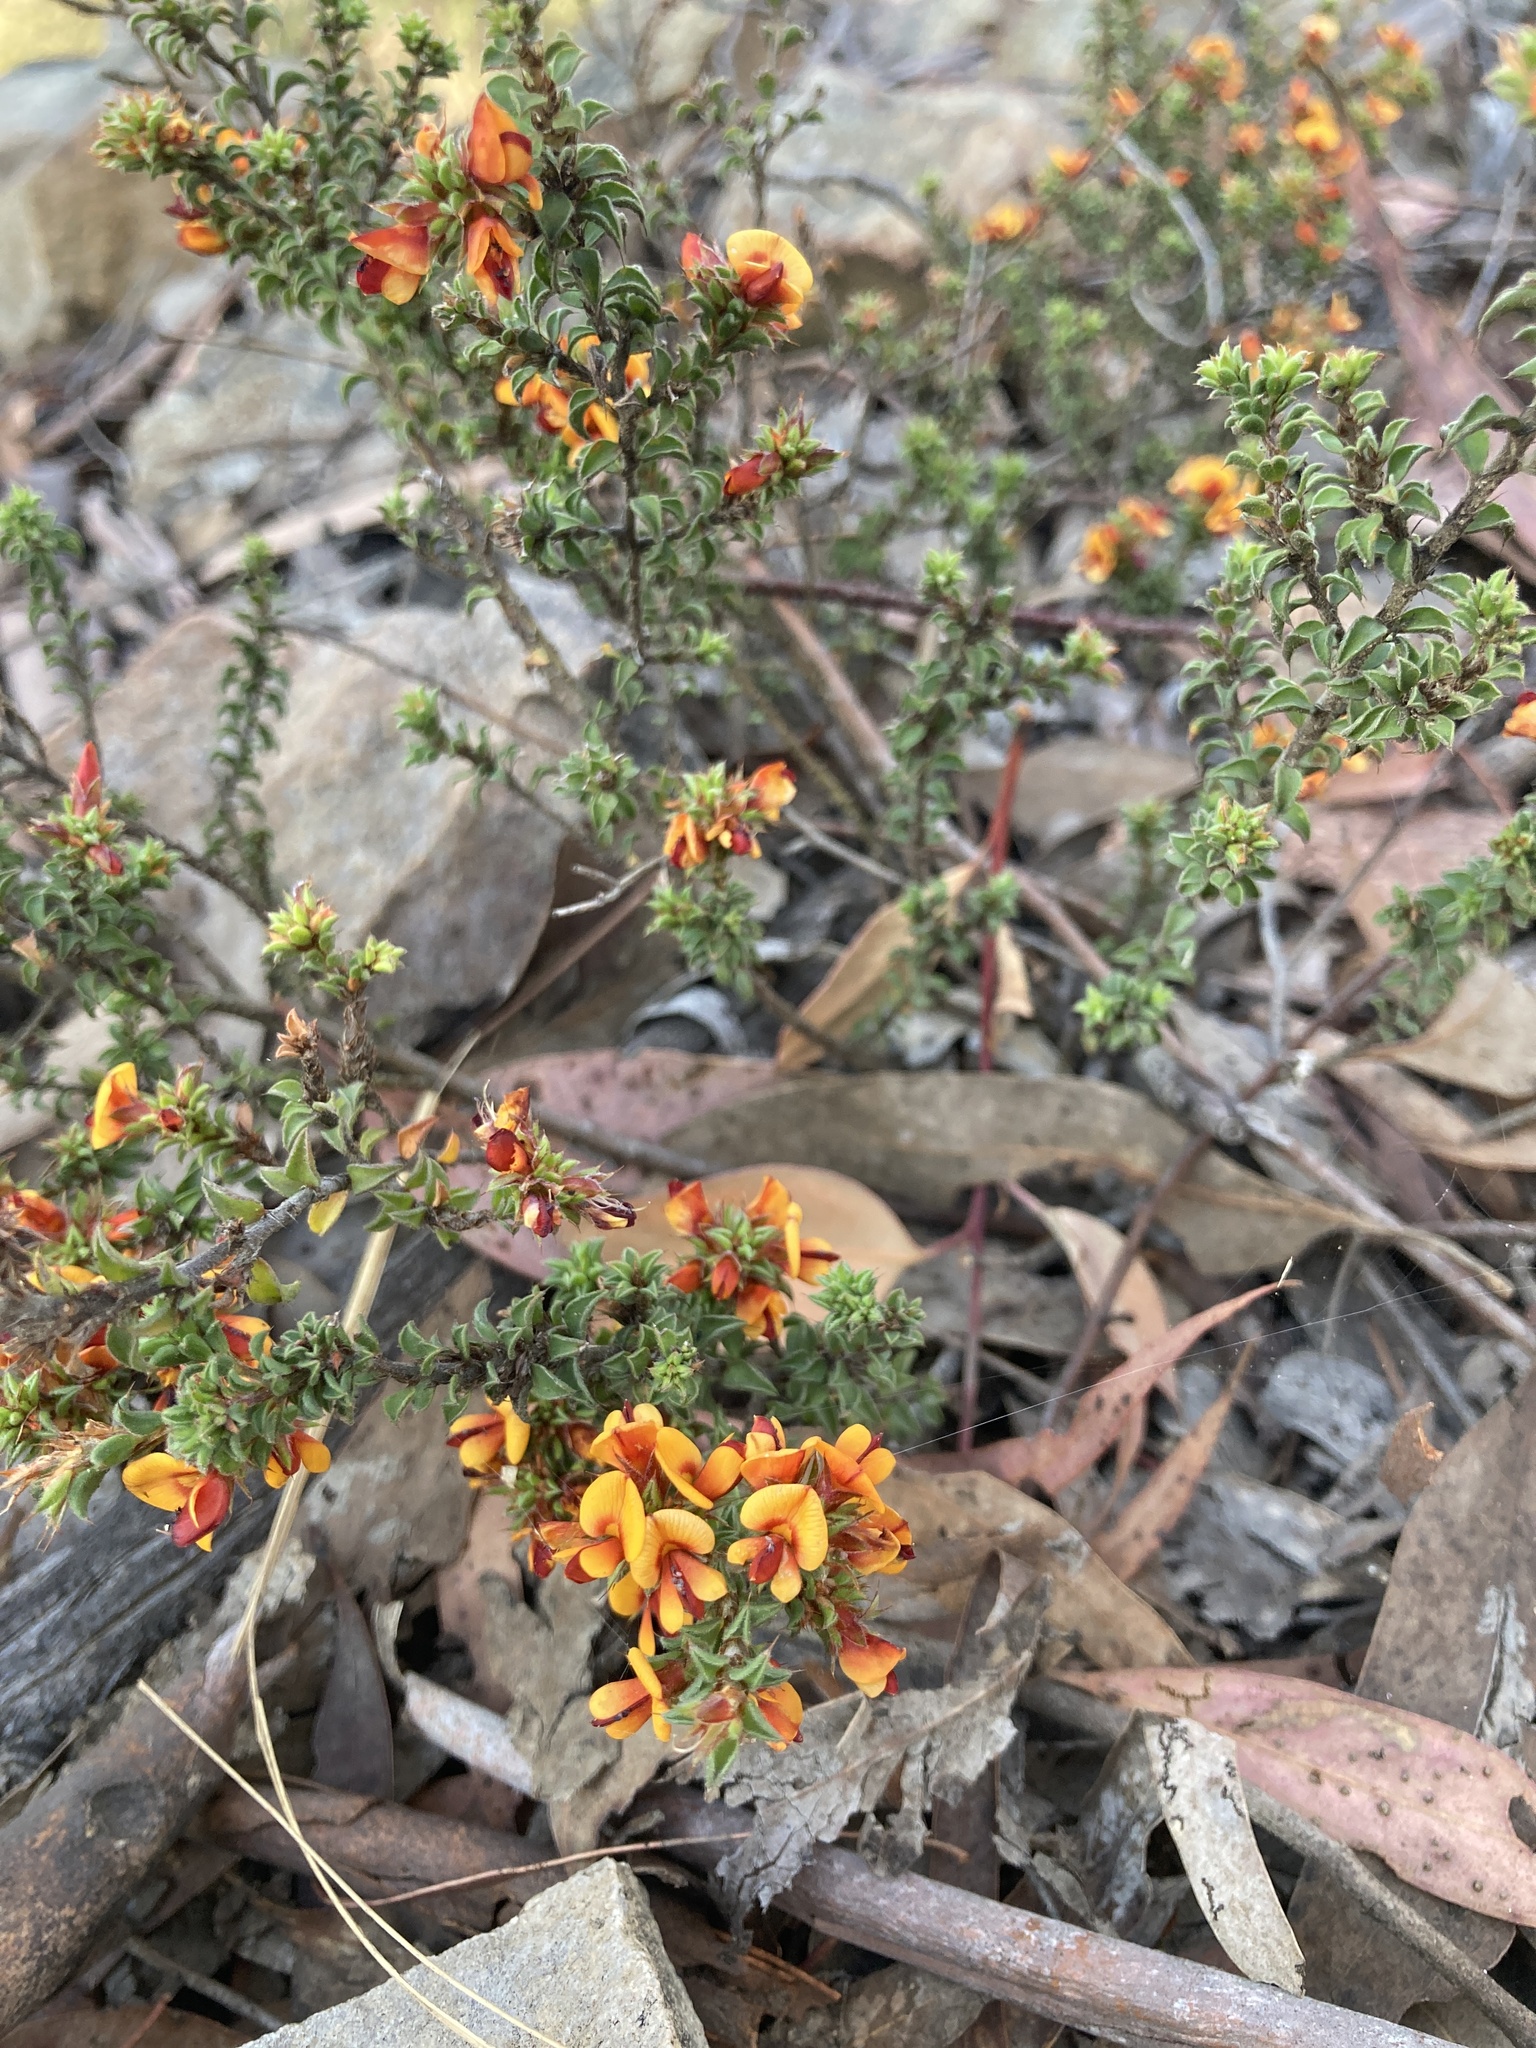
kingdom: Plantae
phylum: Tracheophyta
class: Magnoliopsida
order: Fabales
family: Fabaceae
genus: Pultenaea
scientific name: Pultenaea procumbens
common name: Heathy bush-pea
